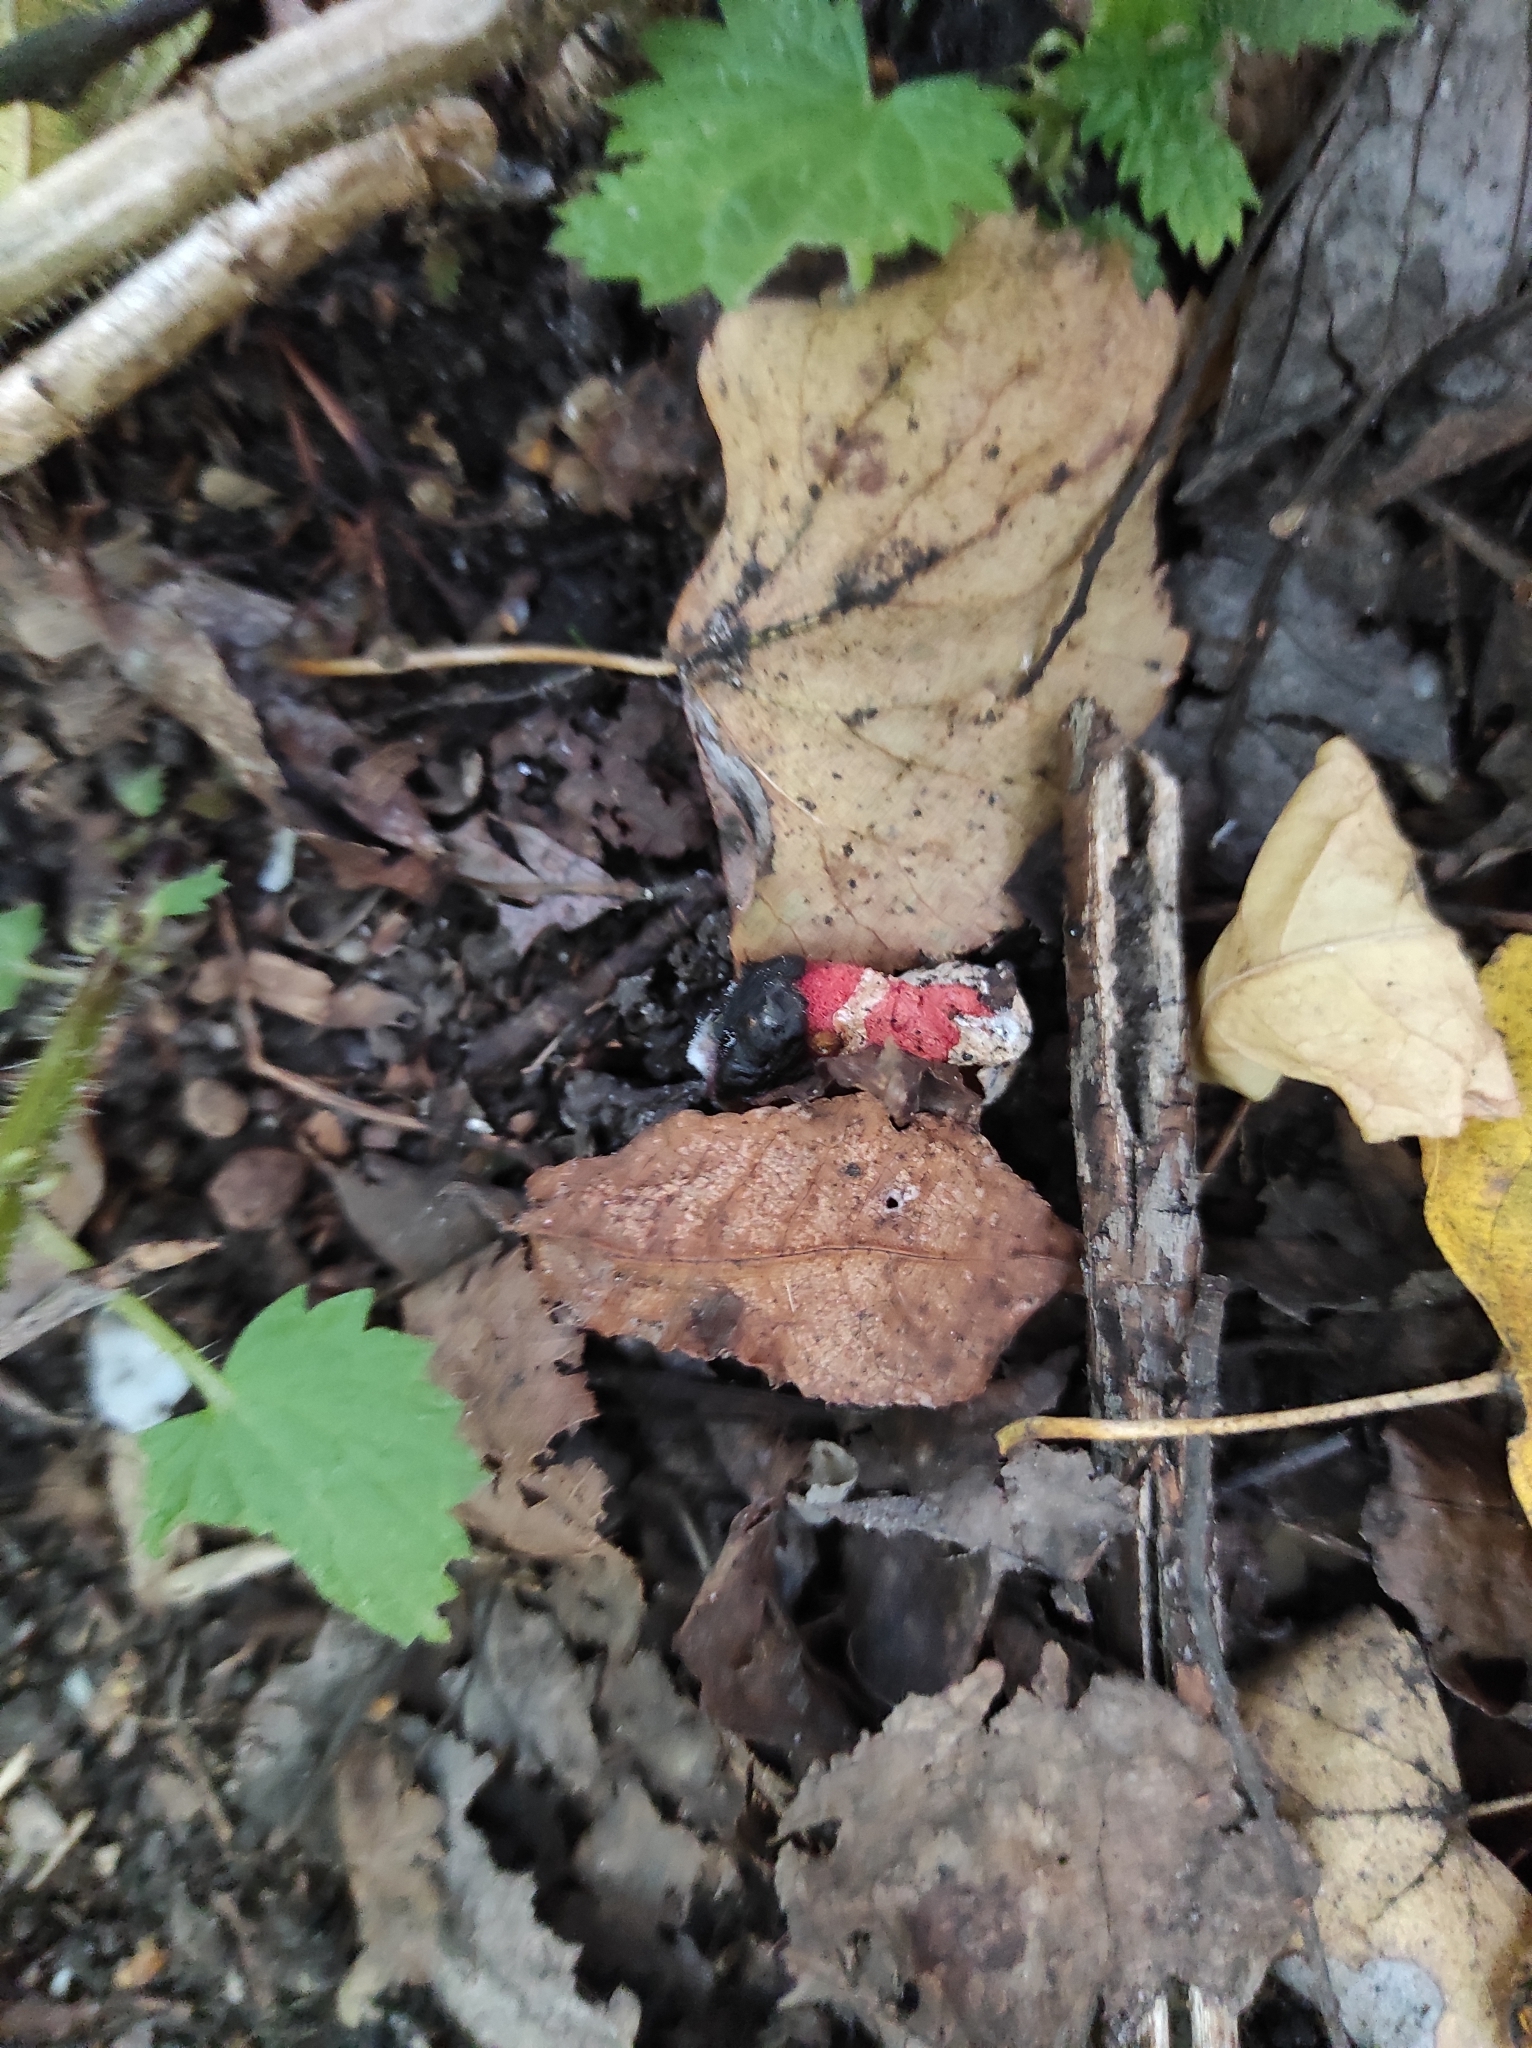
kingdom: Fungi
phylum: Basidiomycota
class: Agaricomycetes
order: Phallales
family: Phallaceae
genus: Mutinus
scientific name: Mutinus caninus
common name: Dog stinkhorn
